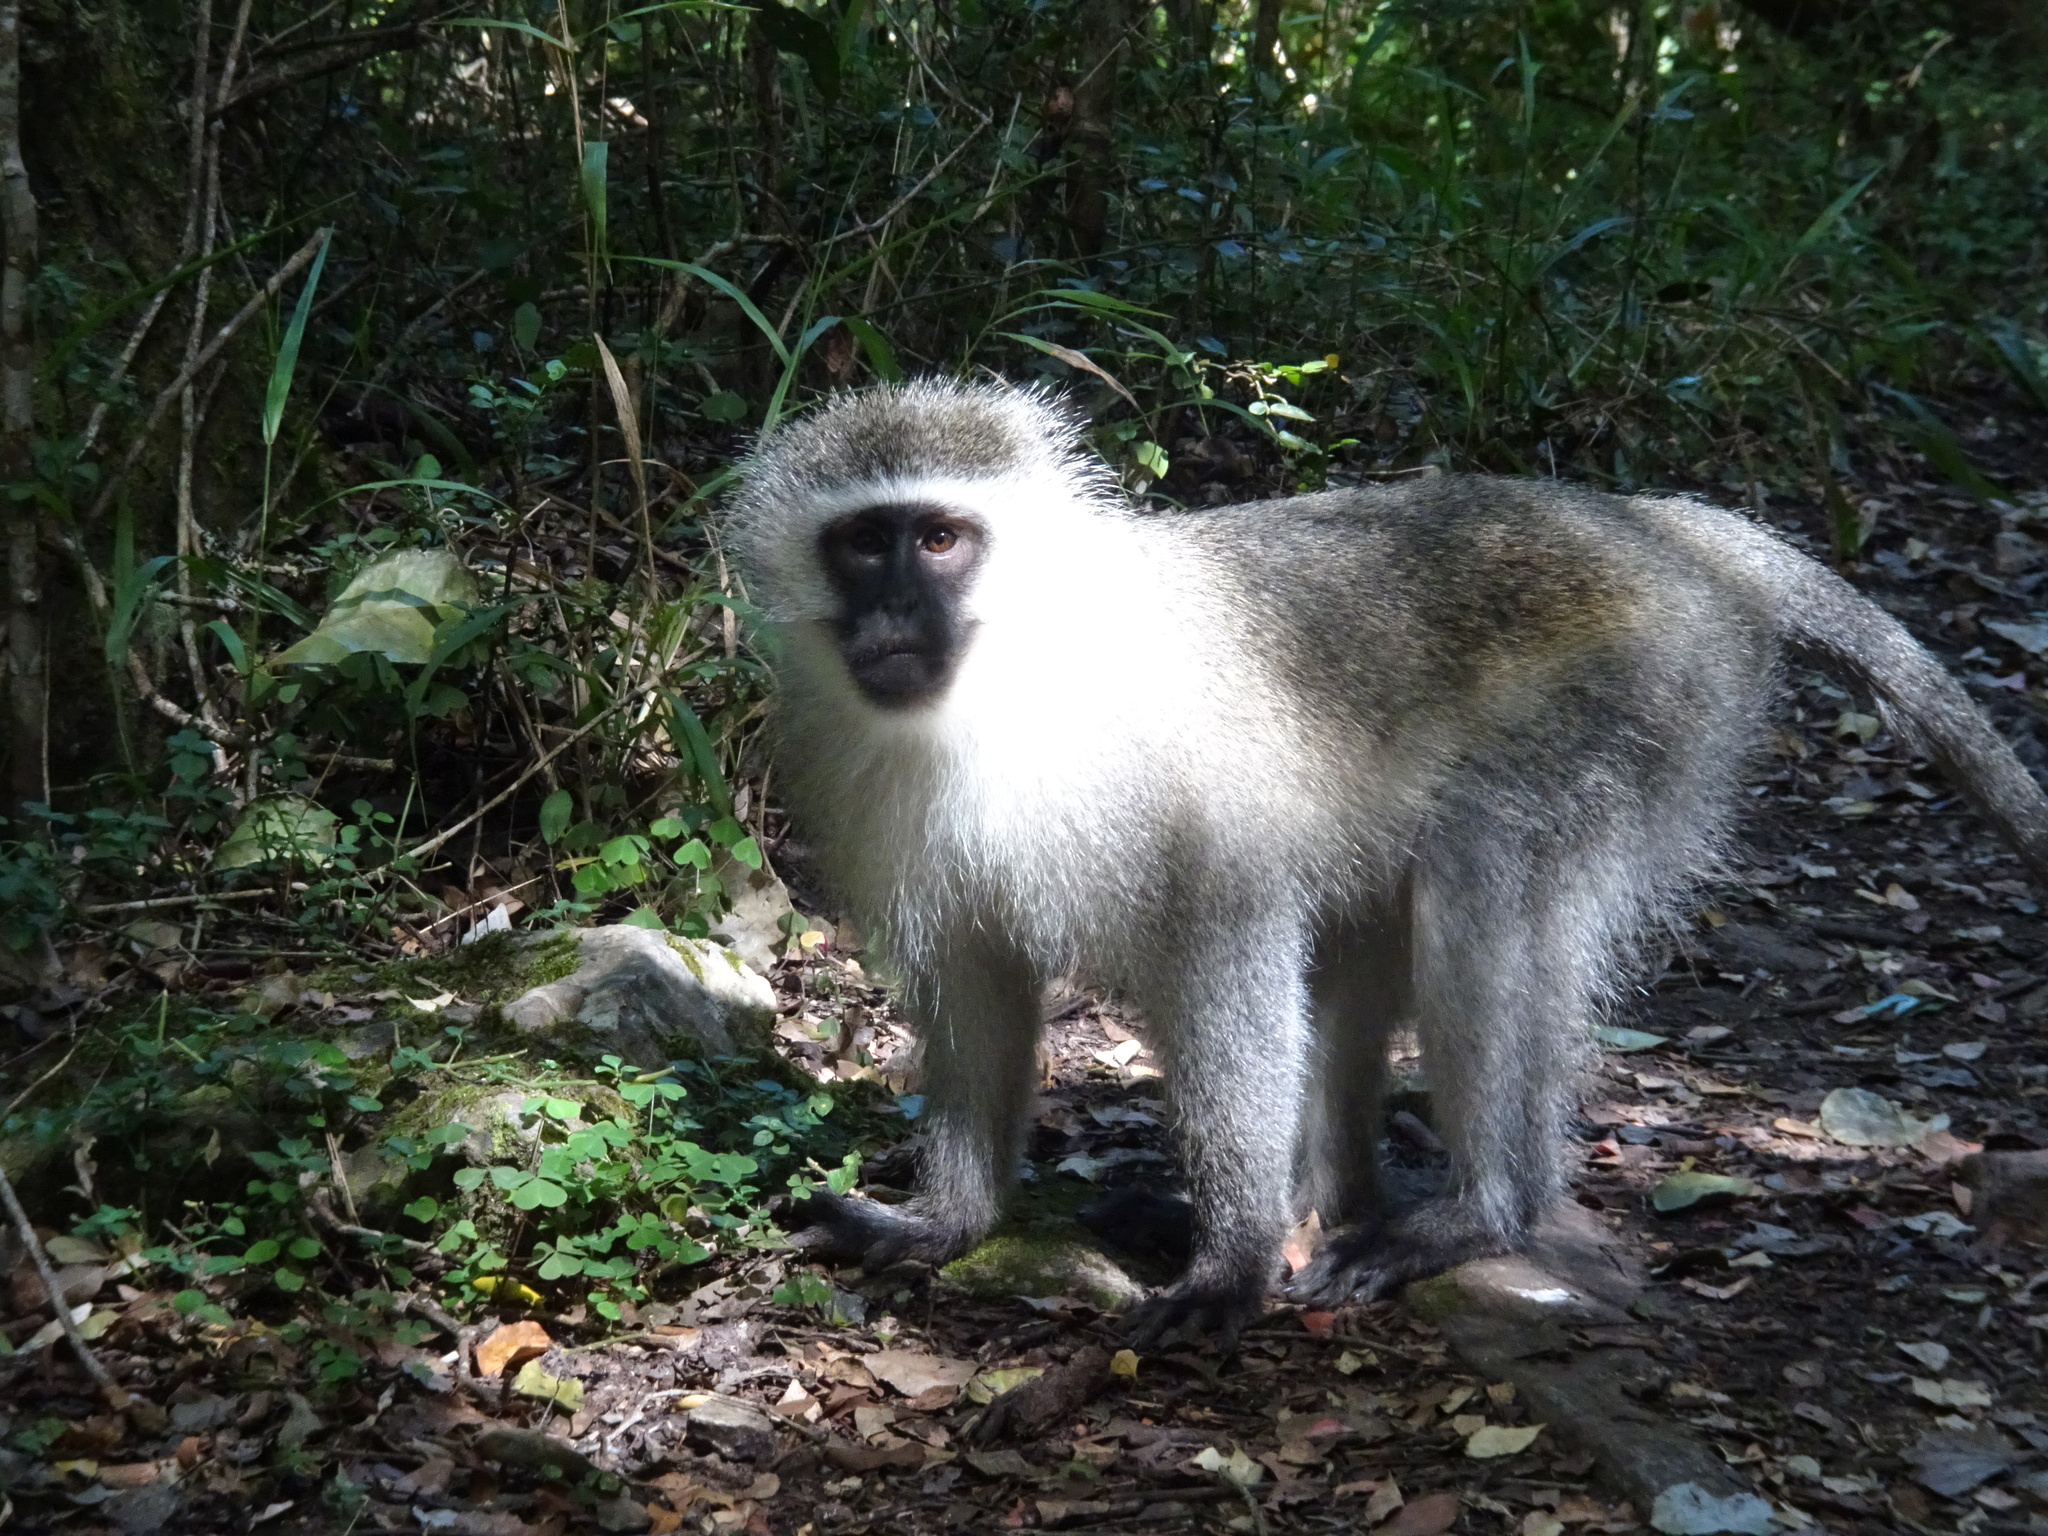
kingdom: Animalia
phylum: Chordata
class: Mammalia
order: Primates
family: Cercopithecidae
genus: Chlorocebus
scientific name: Chlorocebus pygerythrus
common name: Vervet monkey
